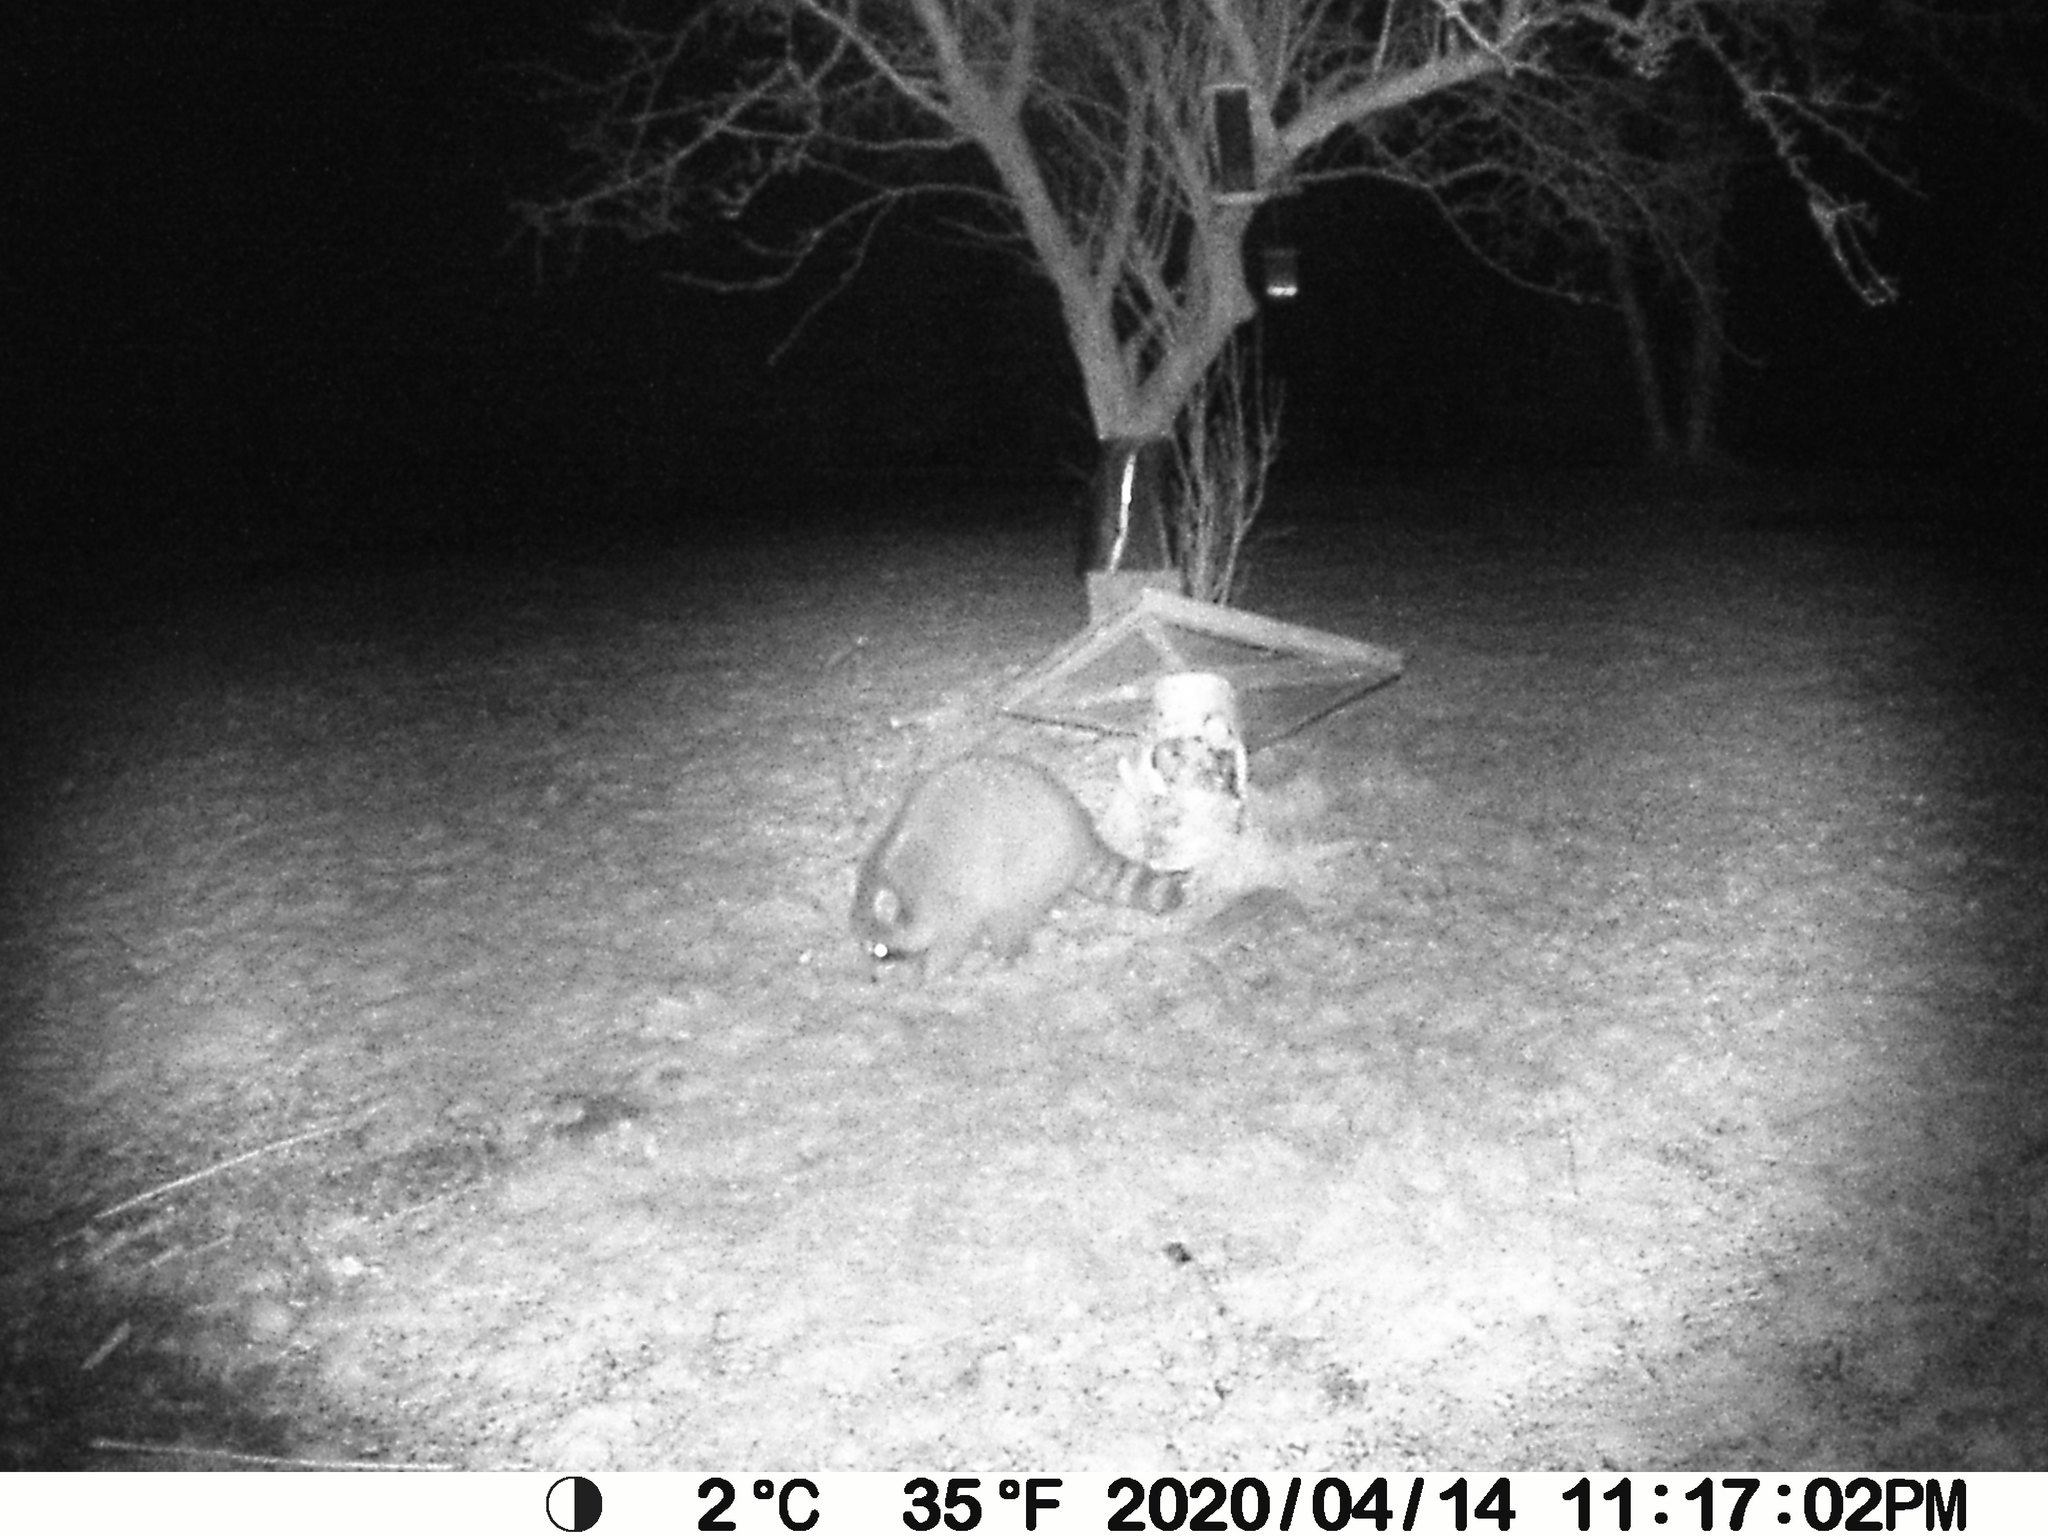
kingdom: Animalia
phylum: Chordata
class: Mammalia
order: Carnivora
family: Procyonidae
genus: Procyon
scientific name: Procyon lotor
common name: Raccoon
